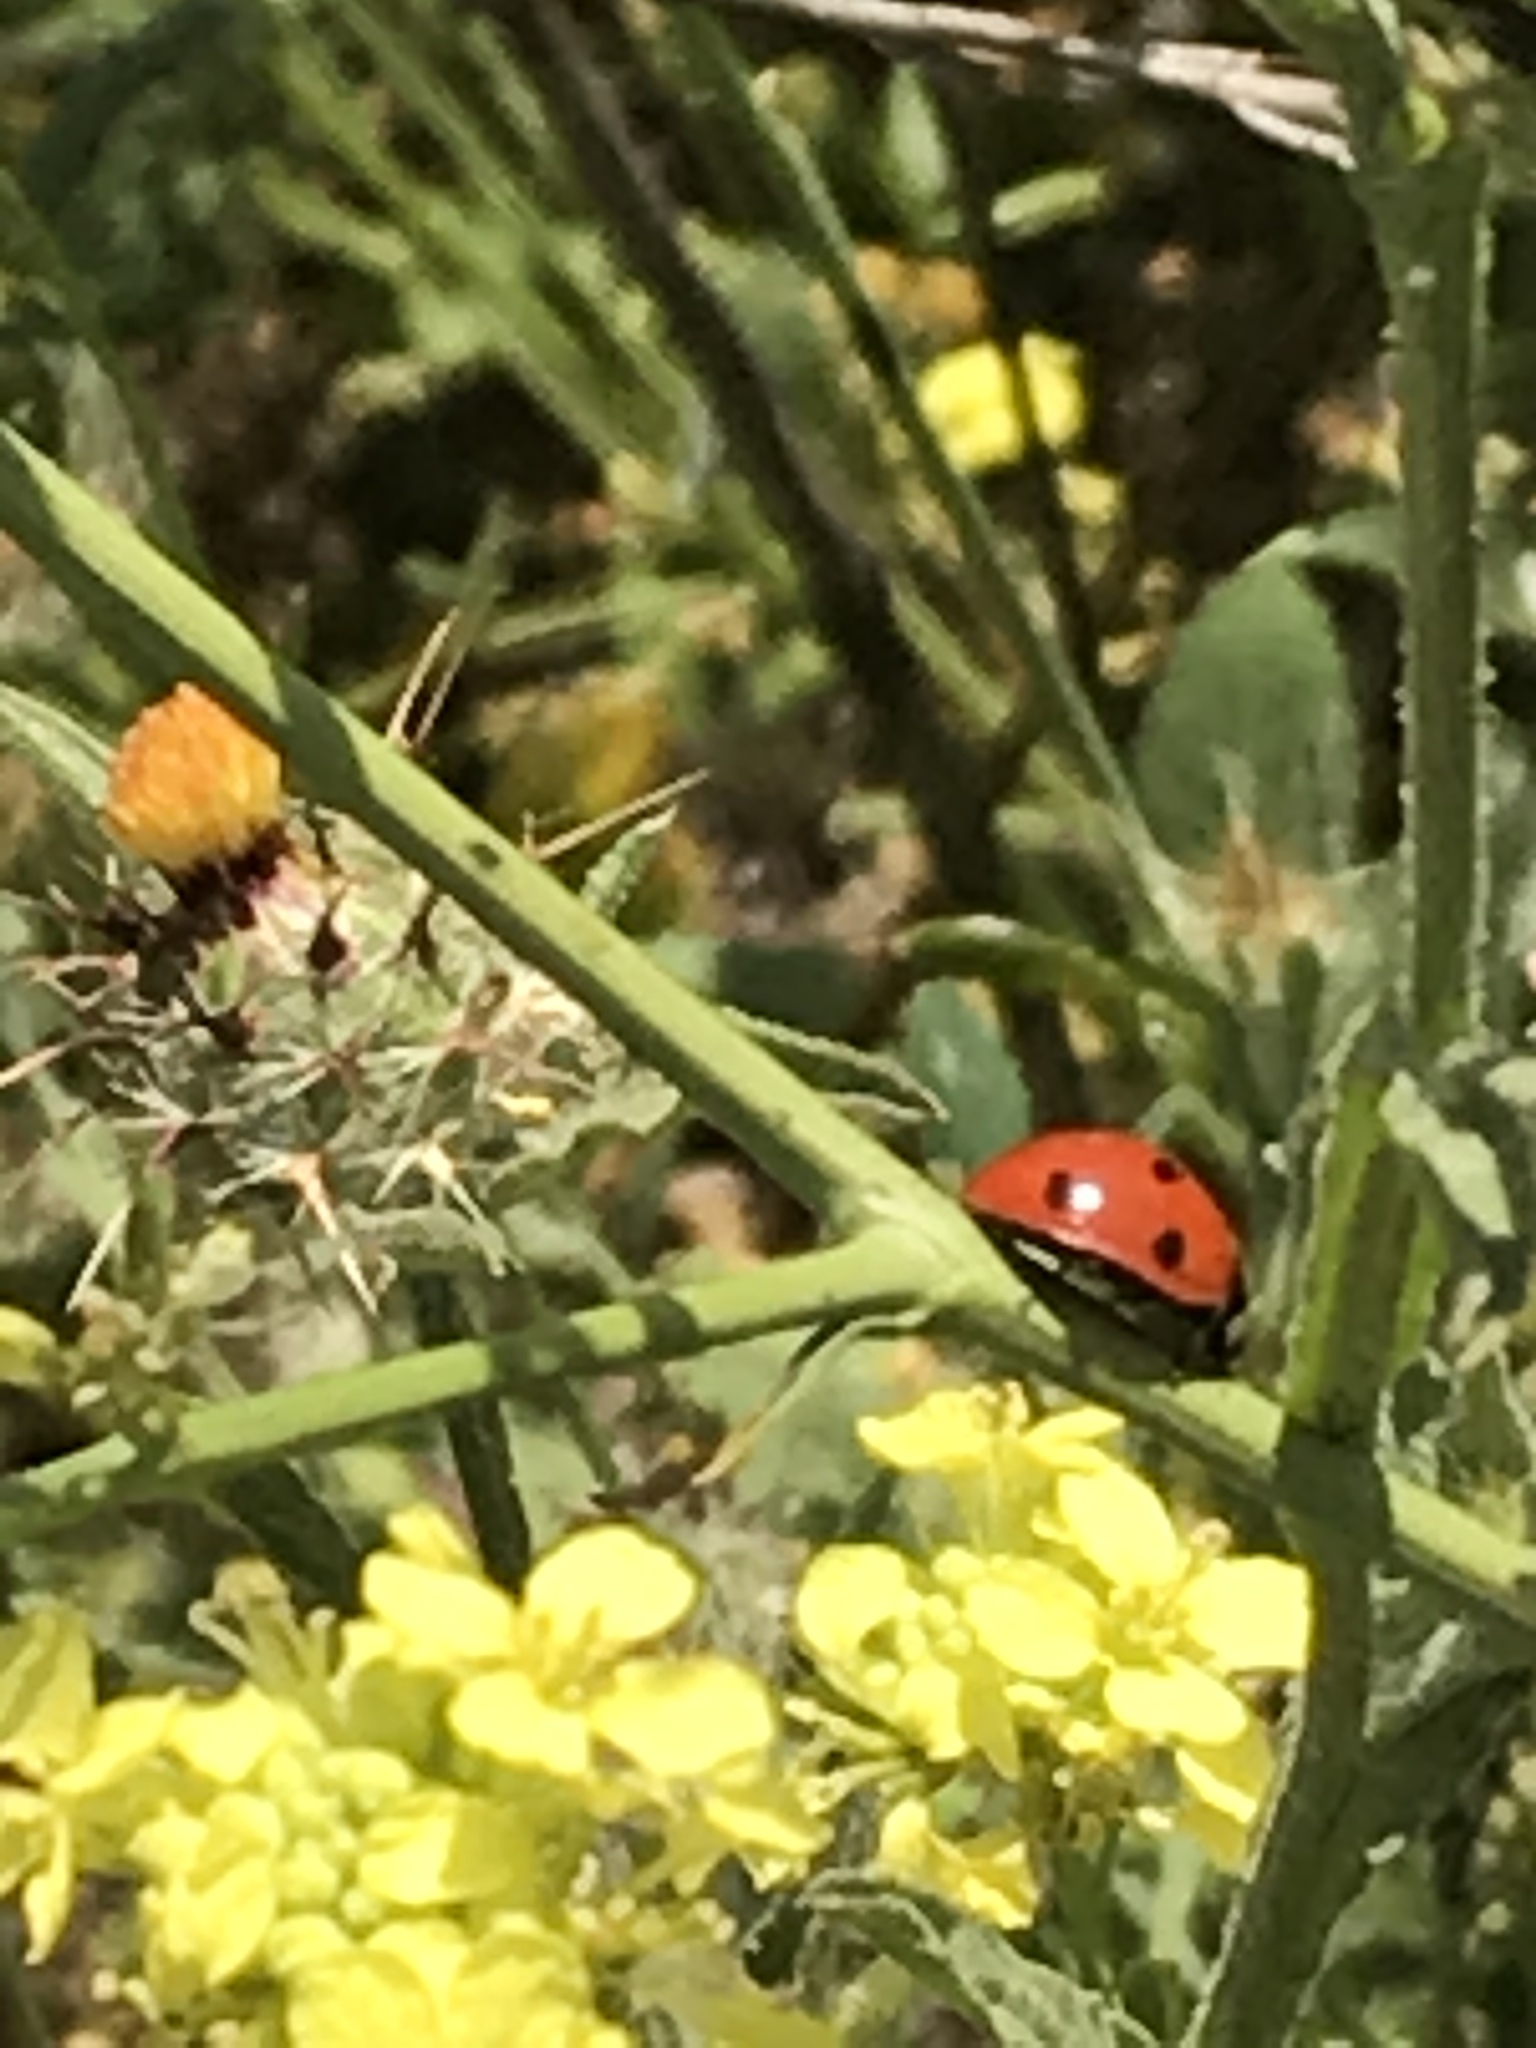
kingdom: Animalia
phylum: Arthropoda
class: Insecta
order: Coleoptera
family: Coccinellidae
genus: Coccinella
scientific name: Coccinella septempunctata
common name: Sevenspotted lady beetle
